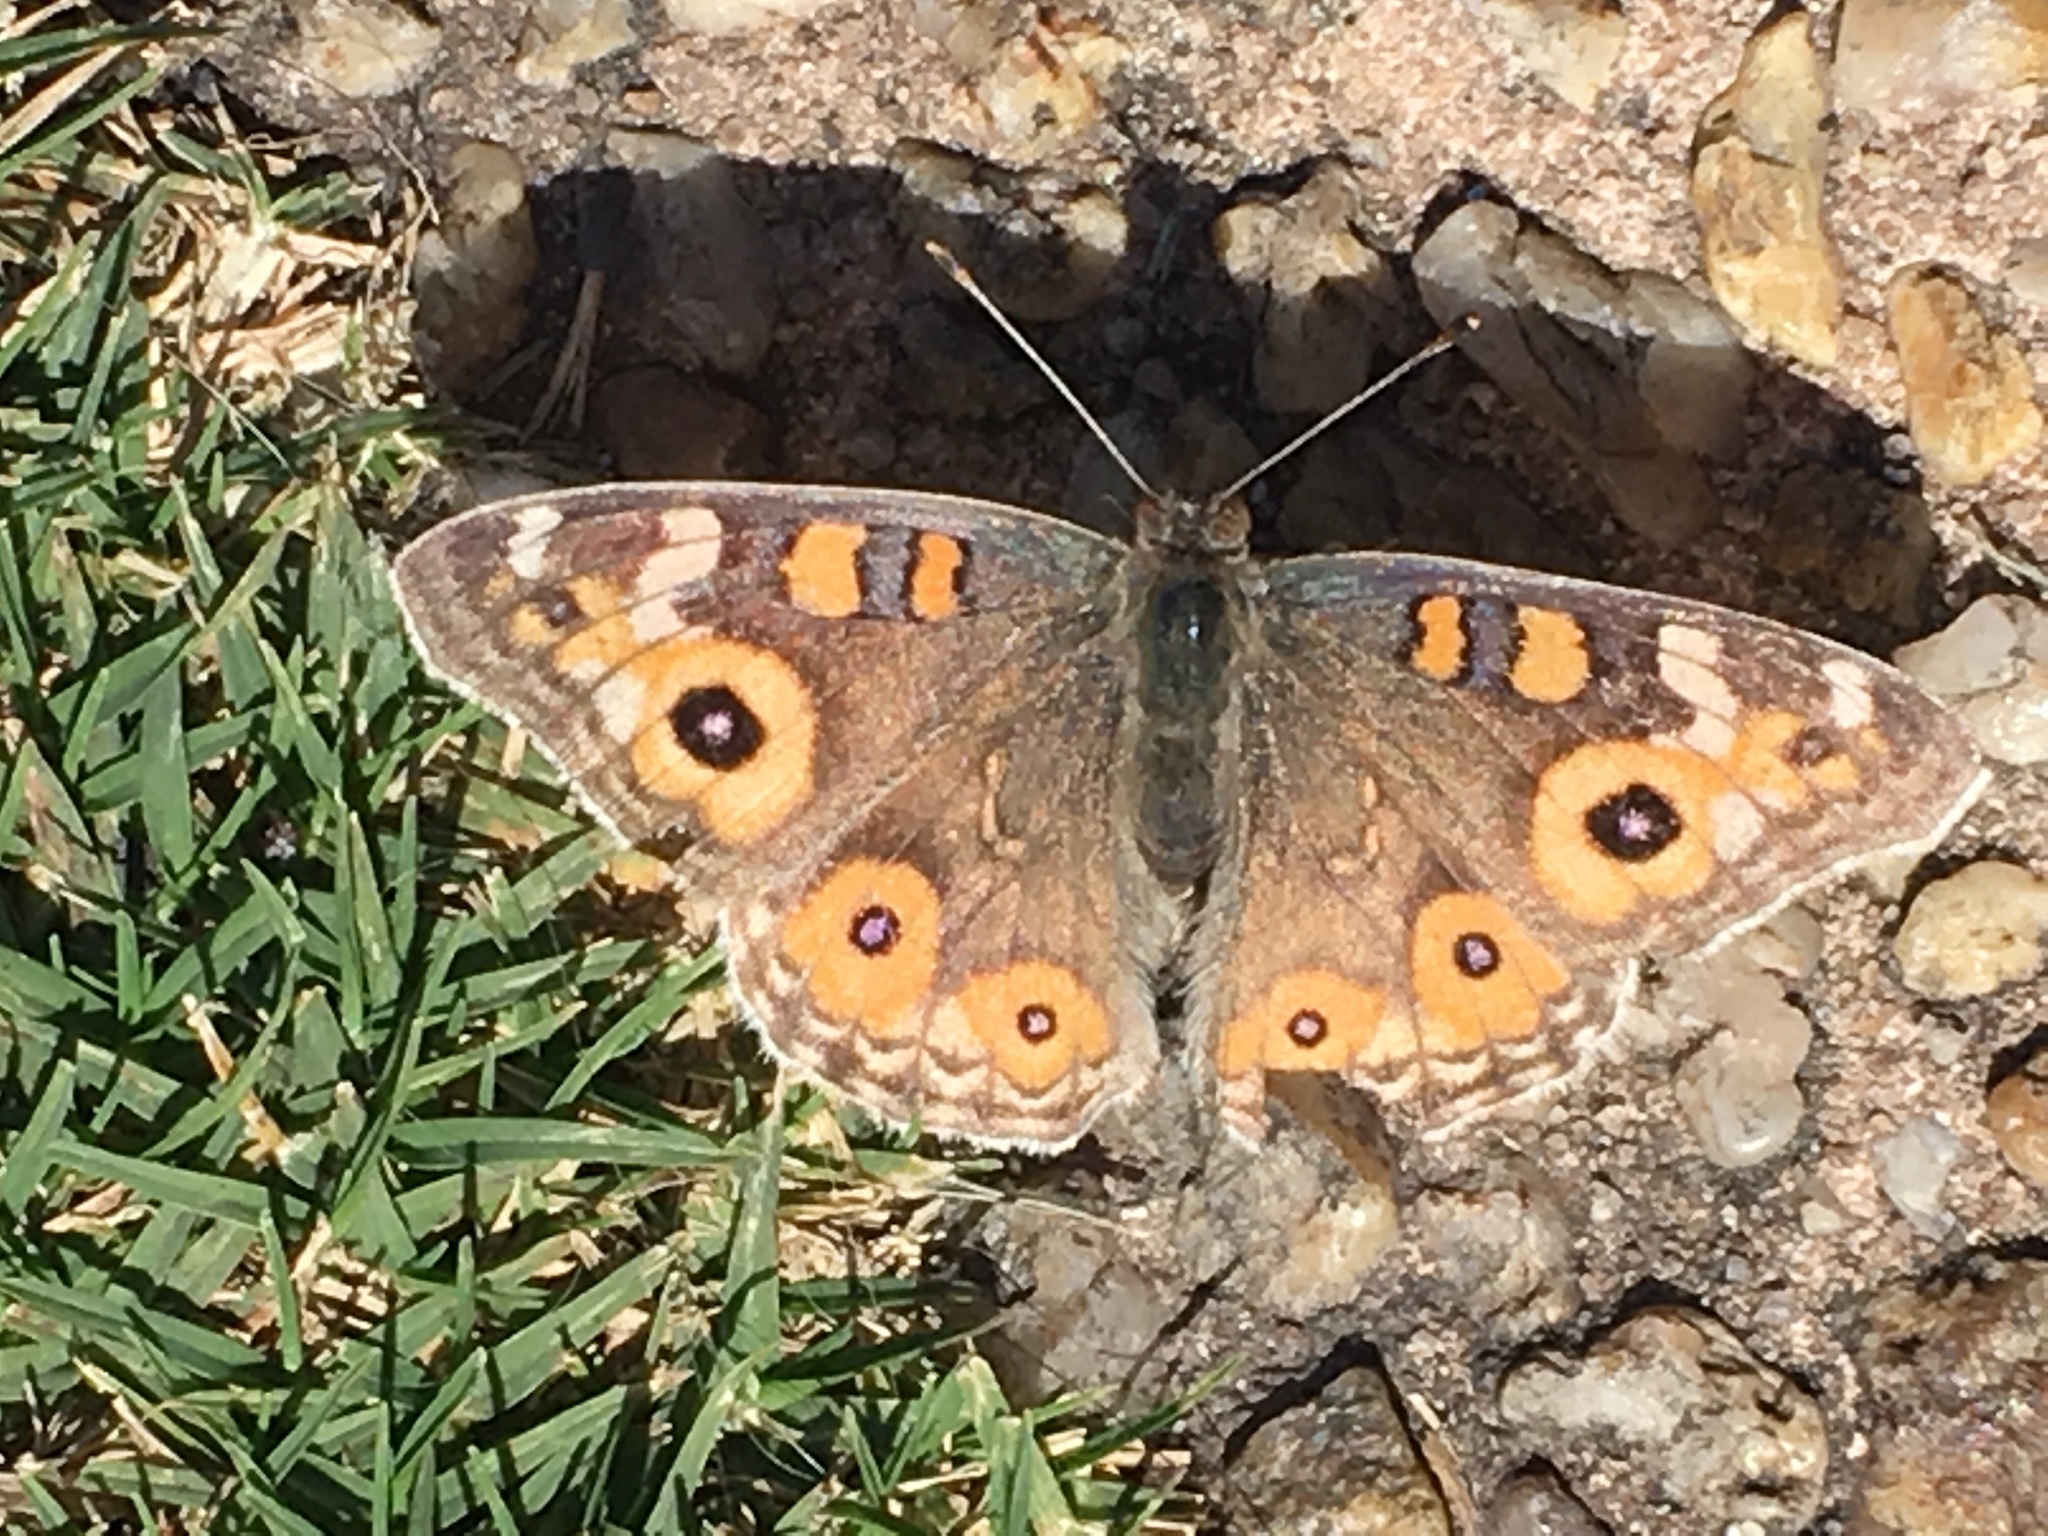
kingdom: Animalia
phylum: Arthropoda
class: Insecta
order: Lepidoptera
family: Nymphalidae
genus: Junonia
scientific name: Junonia villida
